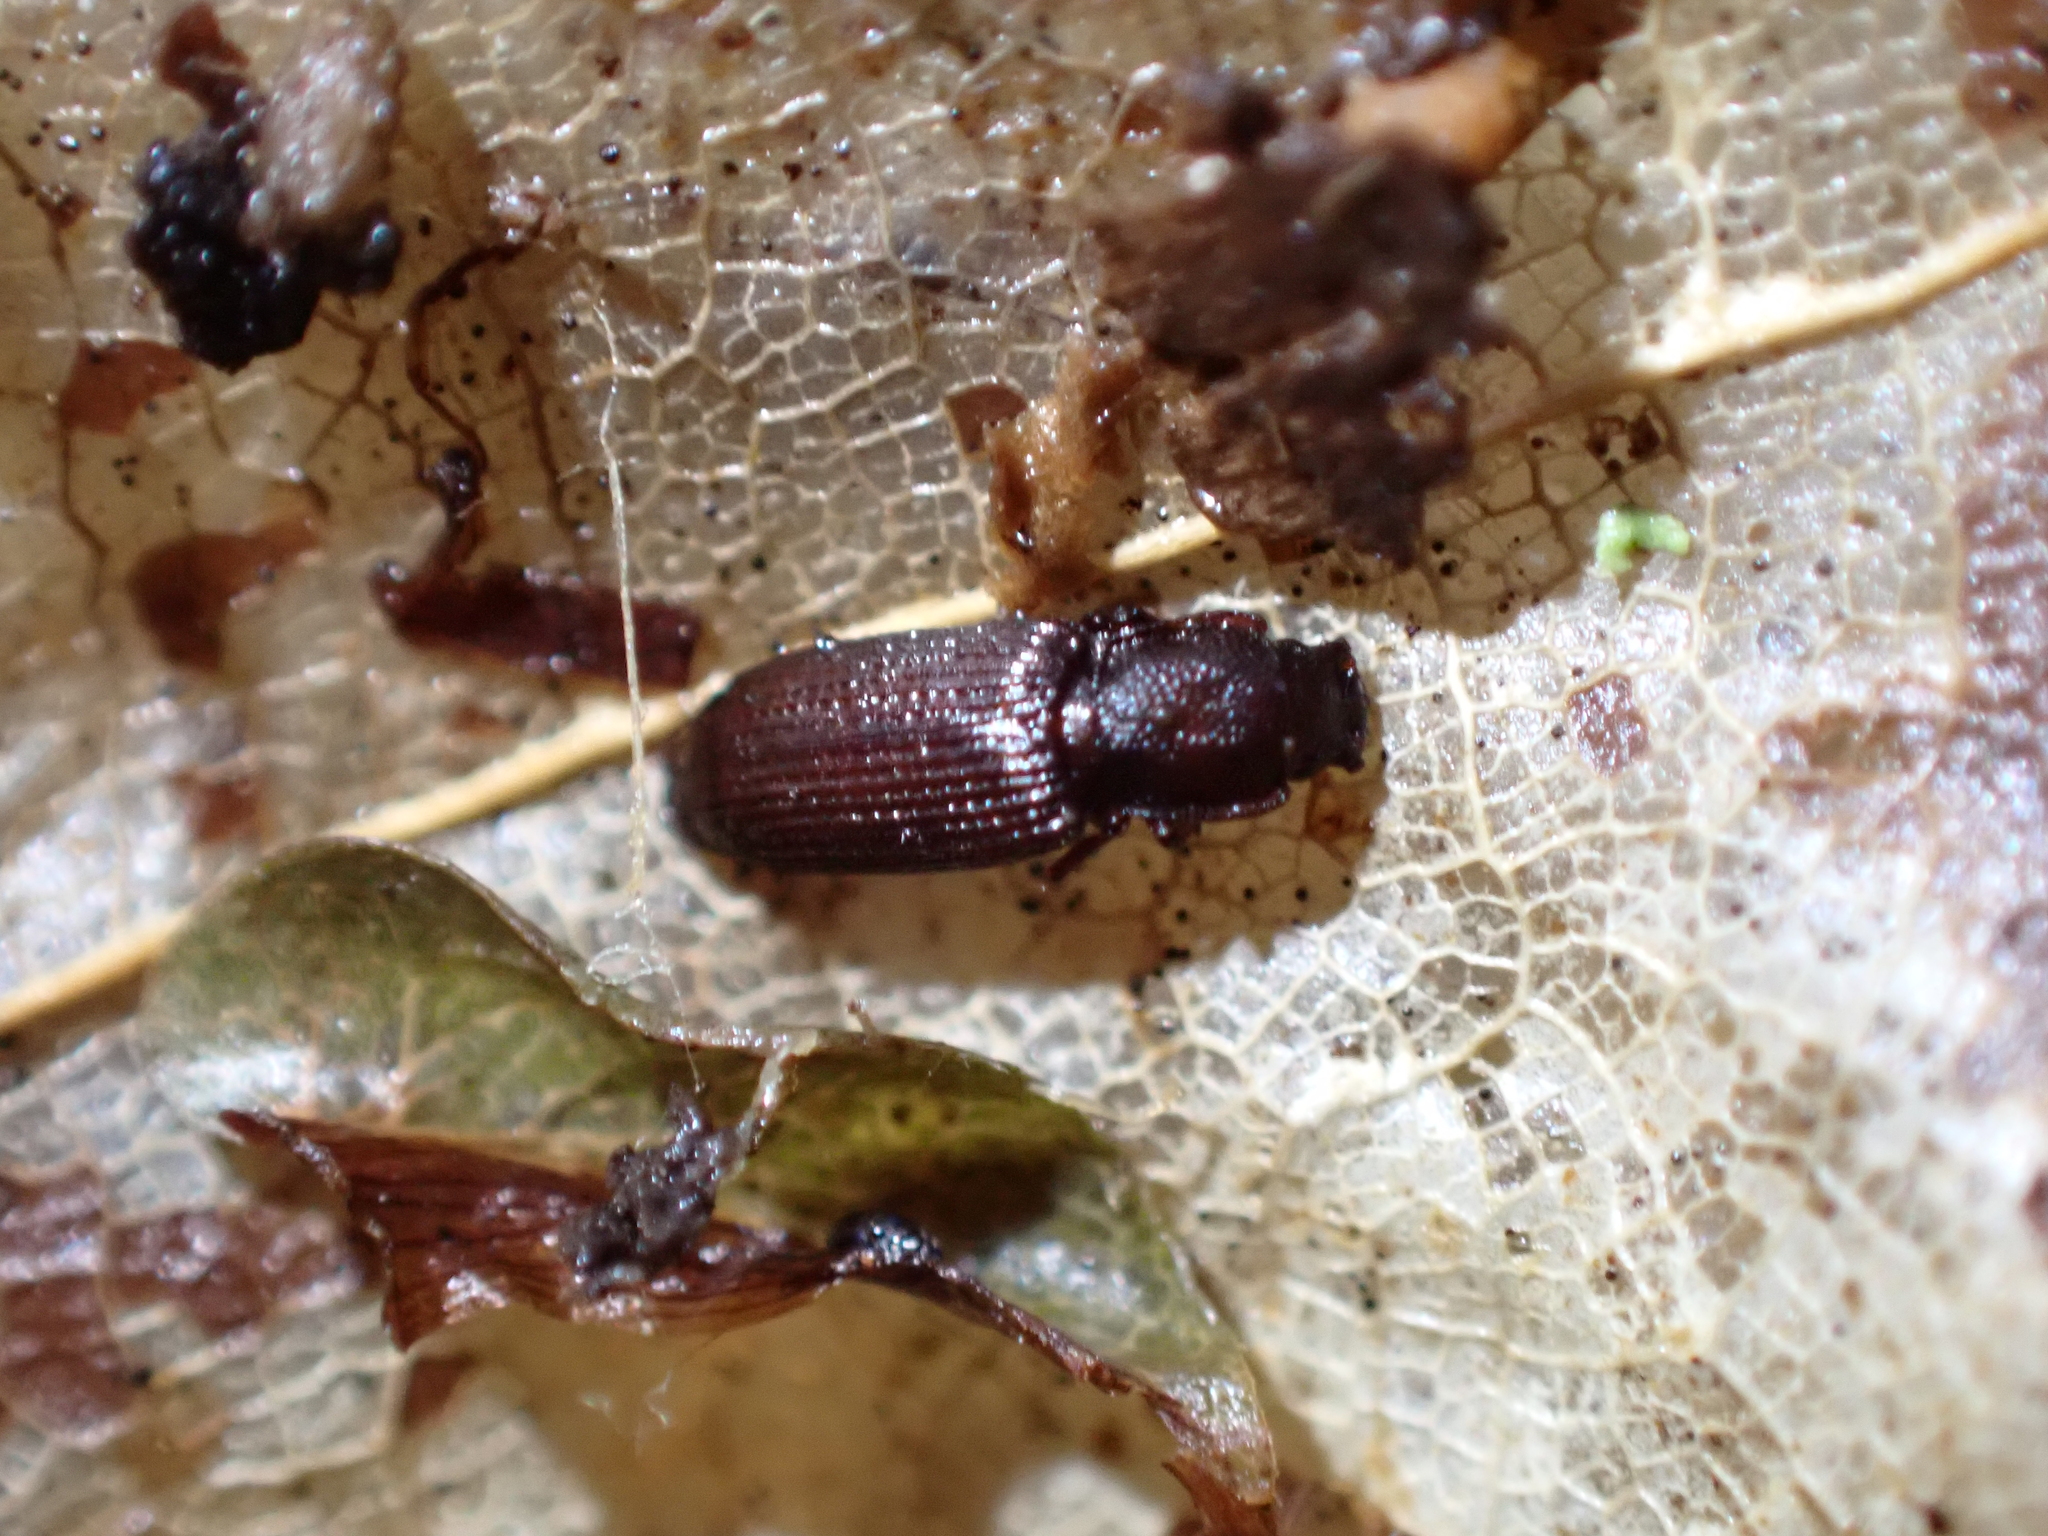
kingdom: Animalia
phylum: Arthropoda
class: Insecta
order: Coleoptera
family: Zopheridae
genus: Pycnomerus
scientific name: Pycnomerus terebrans
